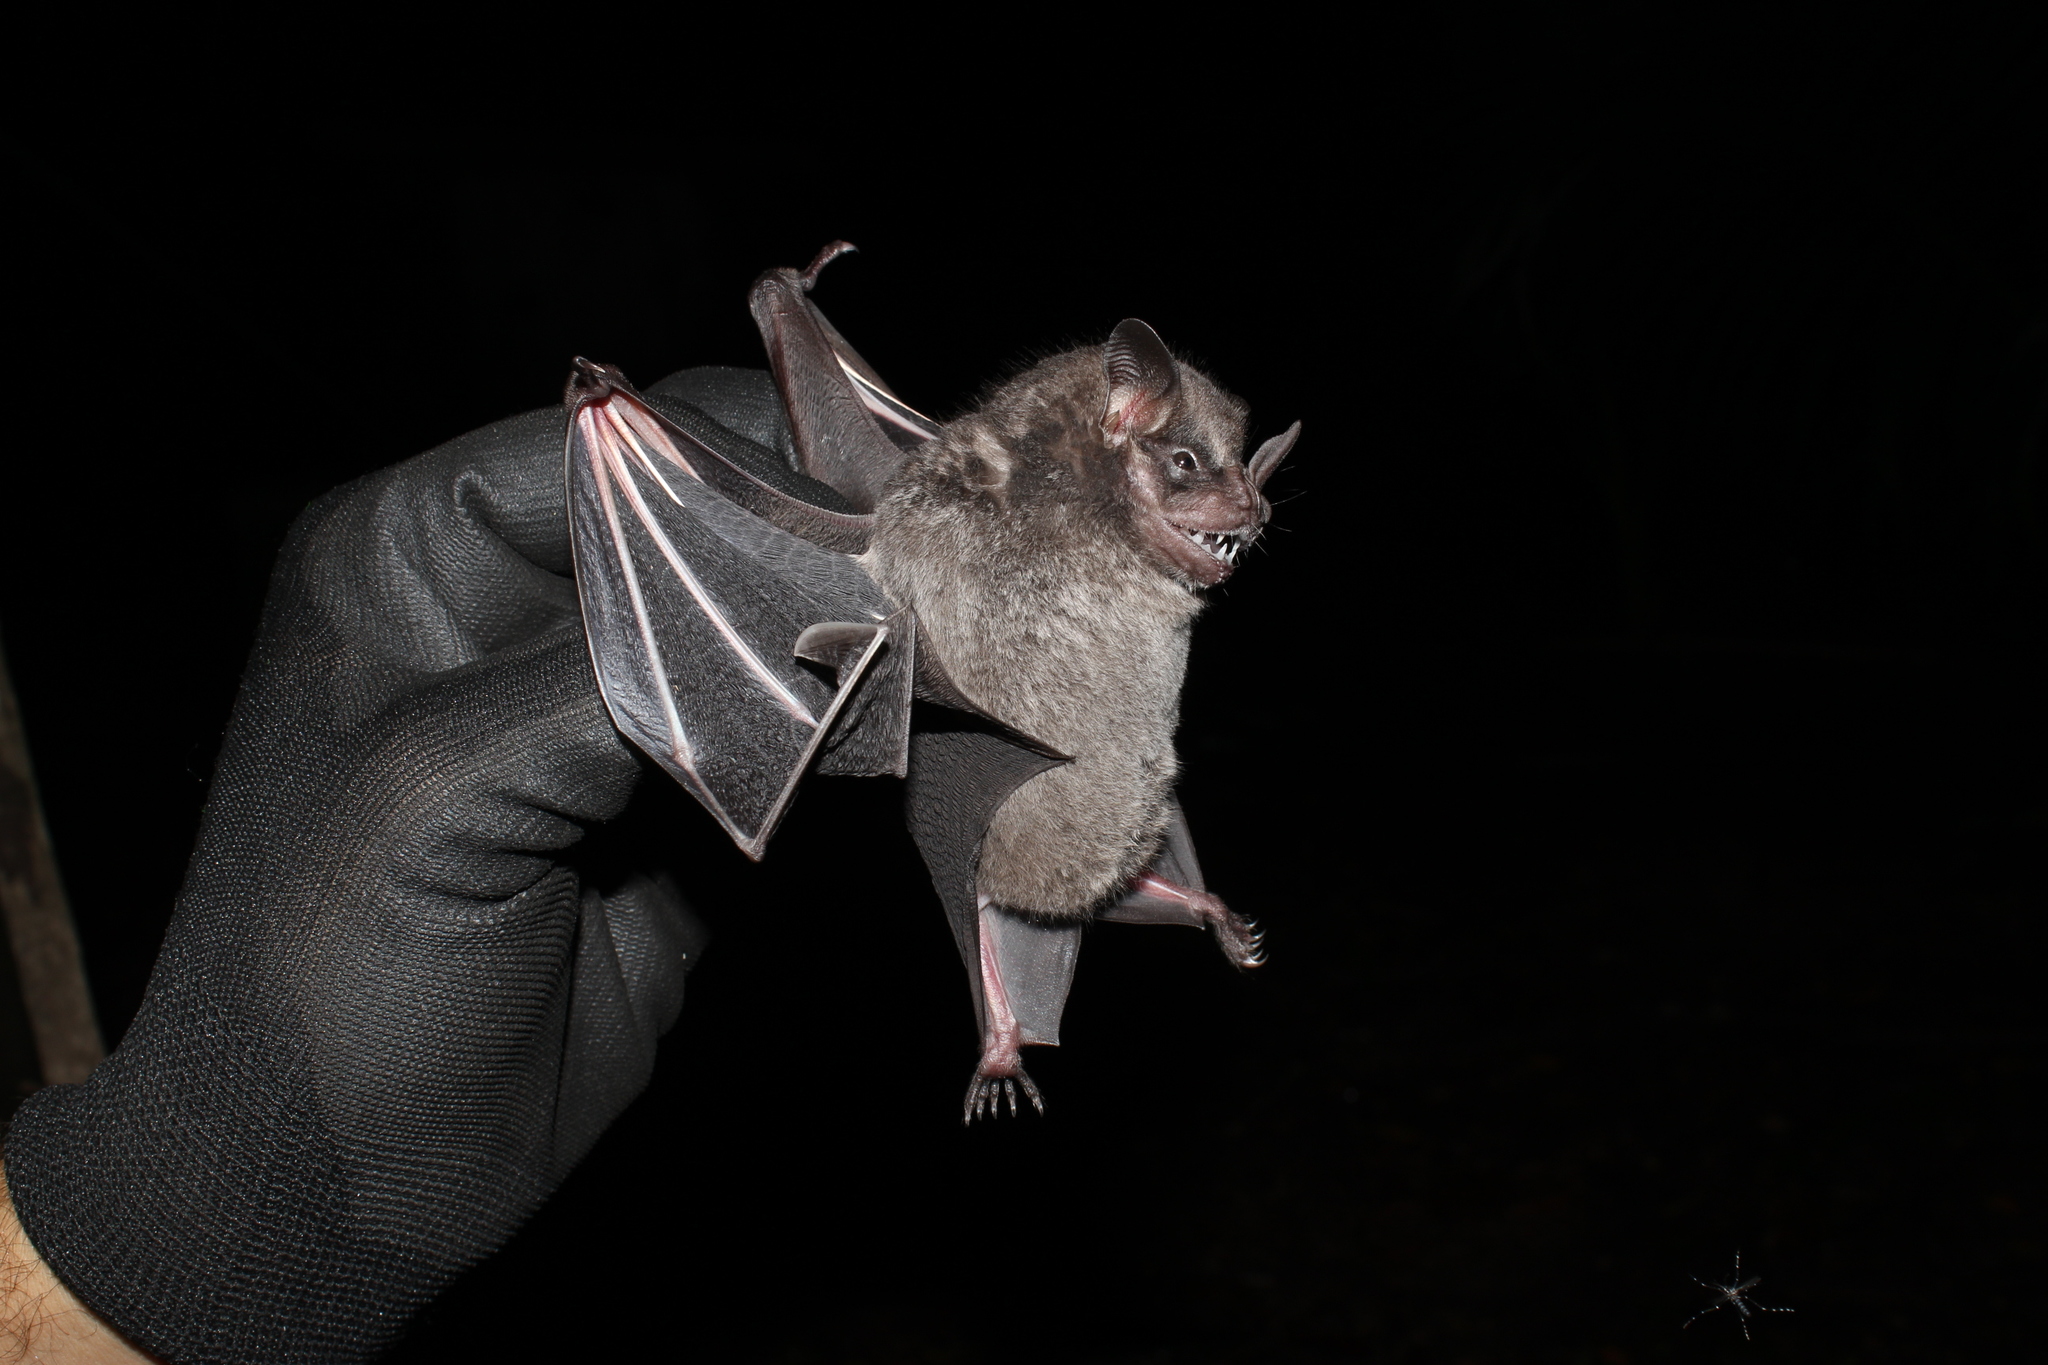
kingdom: Animalia
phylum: Chordata
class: Mammalia
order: Chiroptera
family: Phyllostomidae
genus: Artibeus
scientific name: Artibeus obscurus
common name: Dark fruit-eating bat
